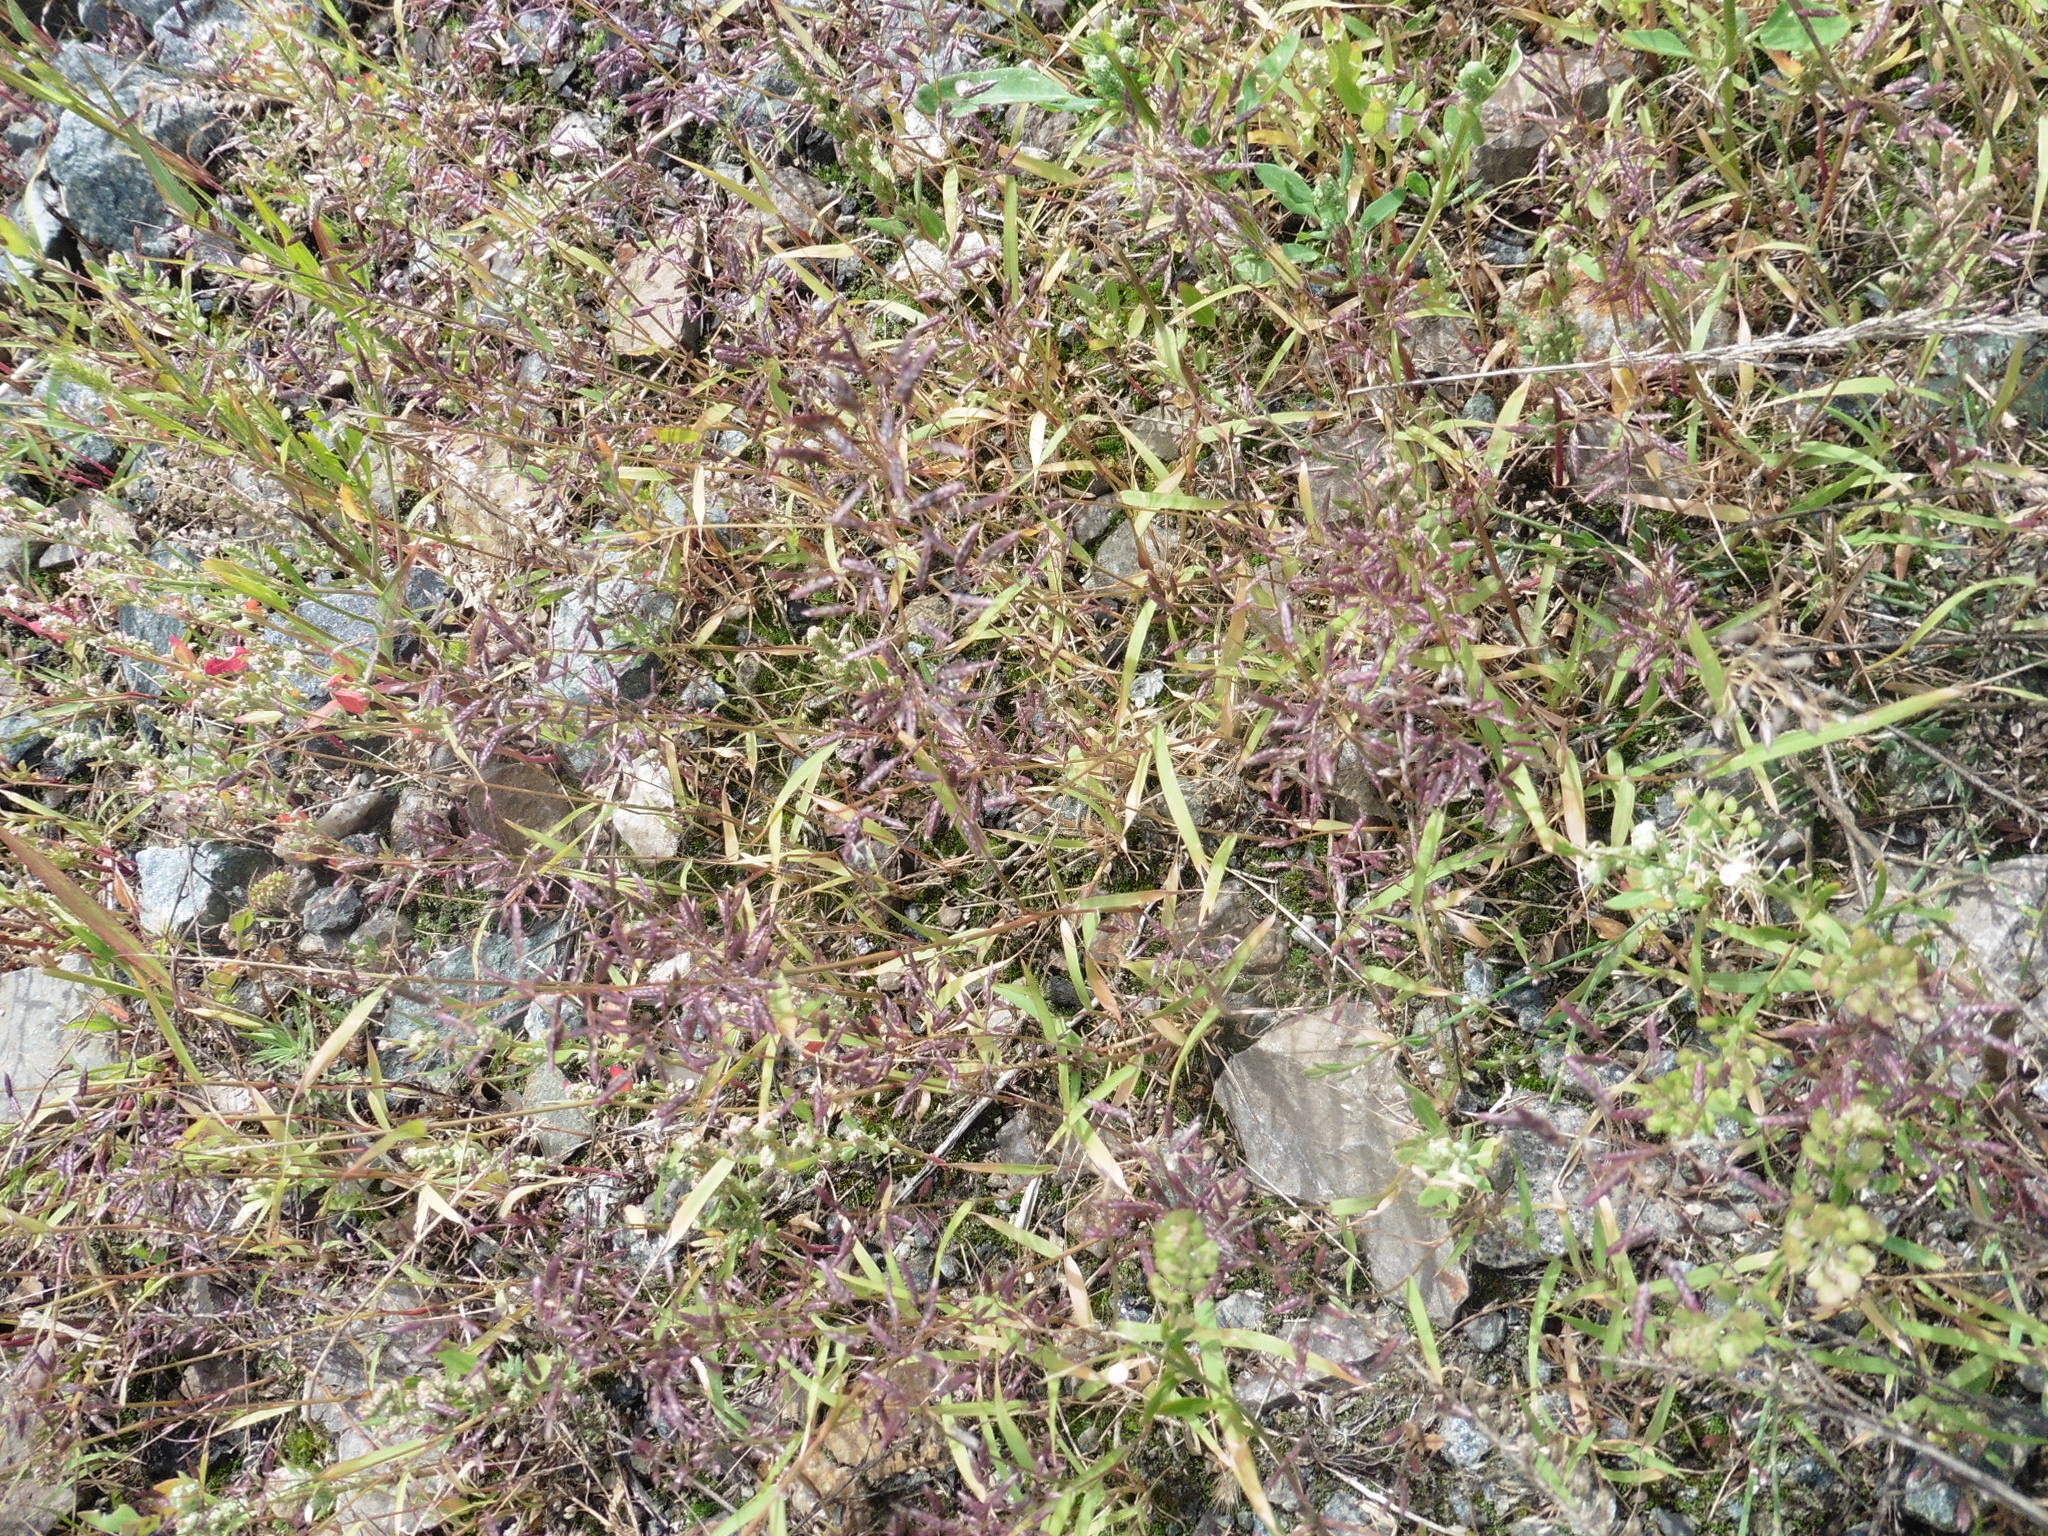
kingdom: Plantae
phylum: Tracheophyta
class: Liliopsida
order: Poales
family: Poaceae
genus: Eragrostis
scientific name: Eragrostis minor
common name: Small love-grass
